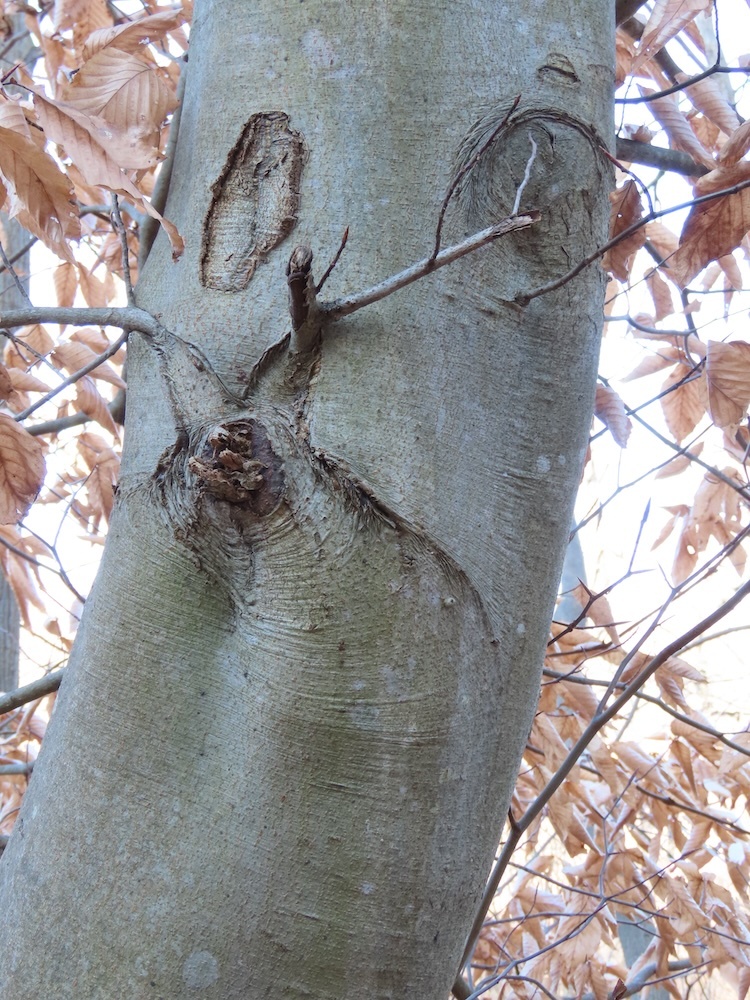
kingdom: Plantae
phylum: Tracheophyta
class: Magnoliopsida
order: Fagales
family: Fagaceae
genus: Fagus
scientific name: Fagus grandifolia
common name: American beech
